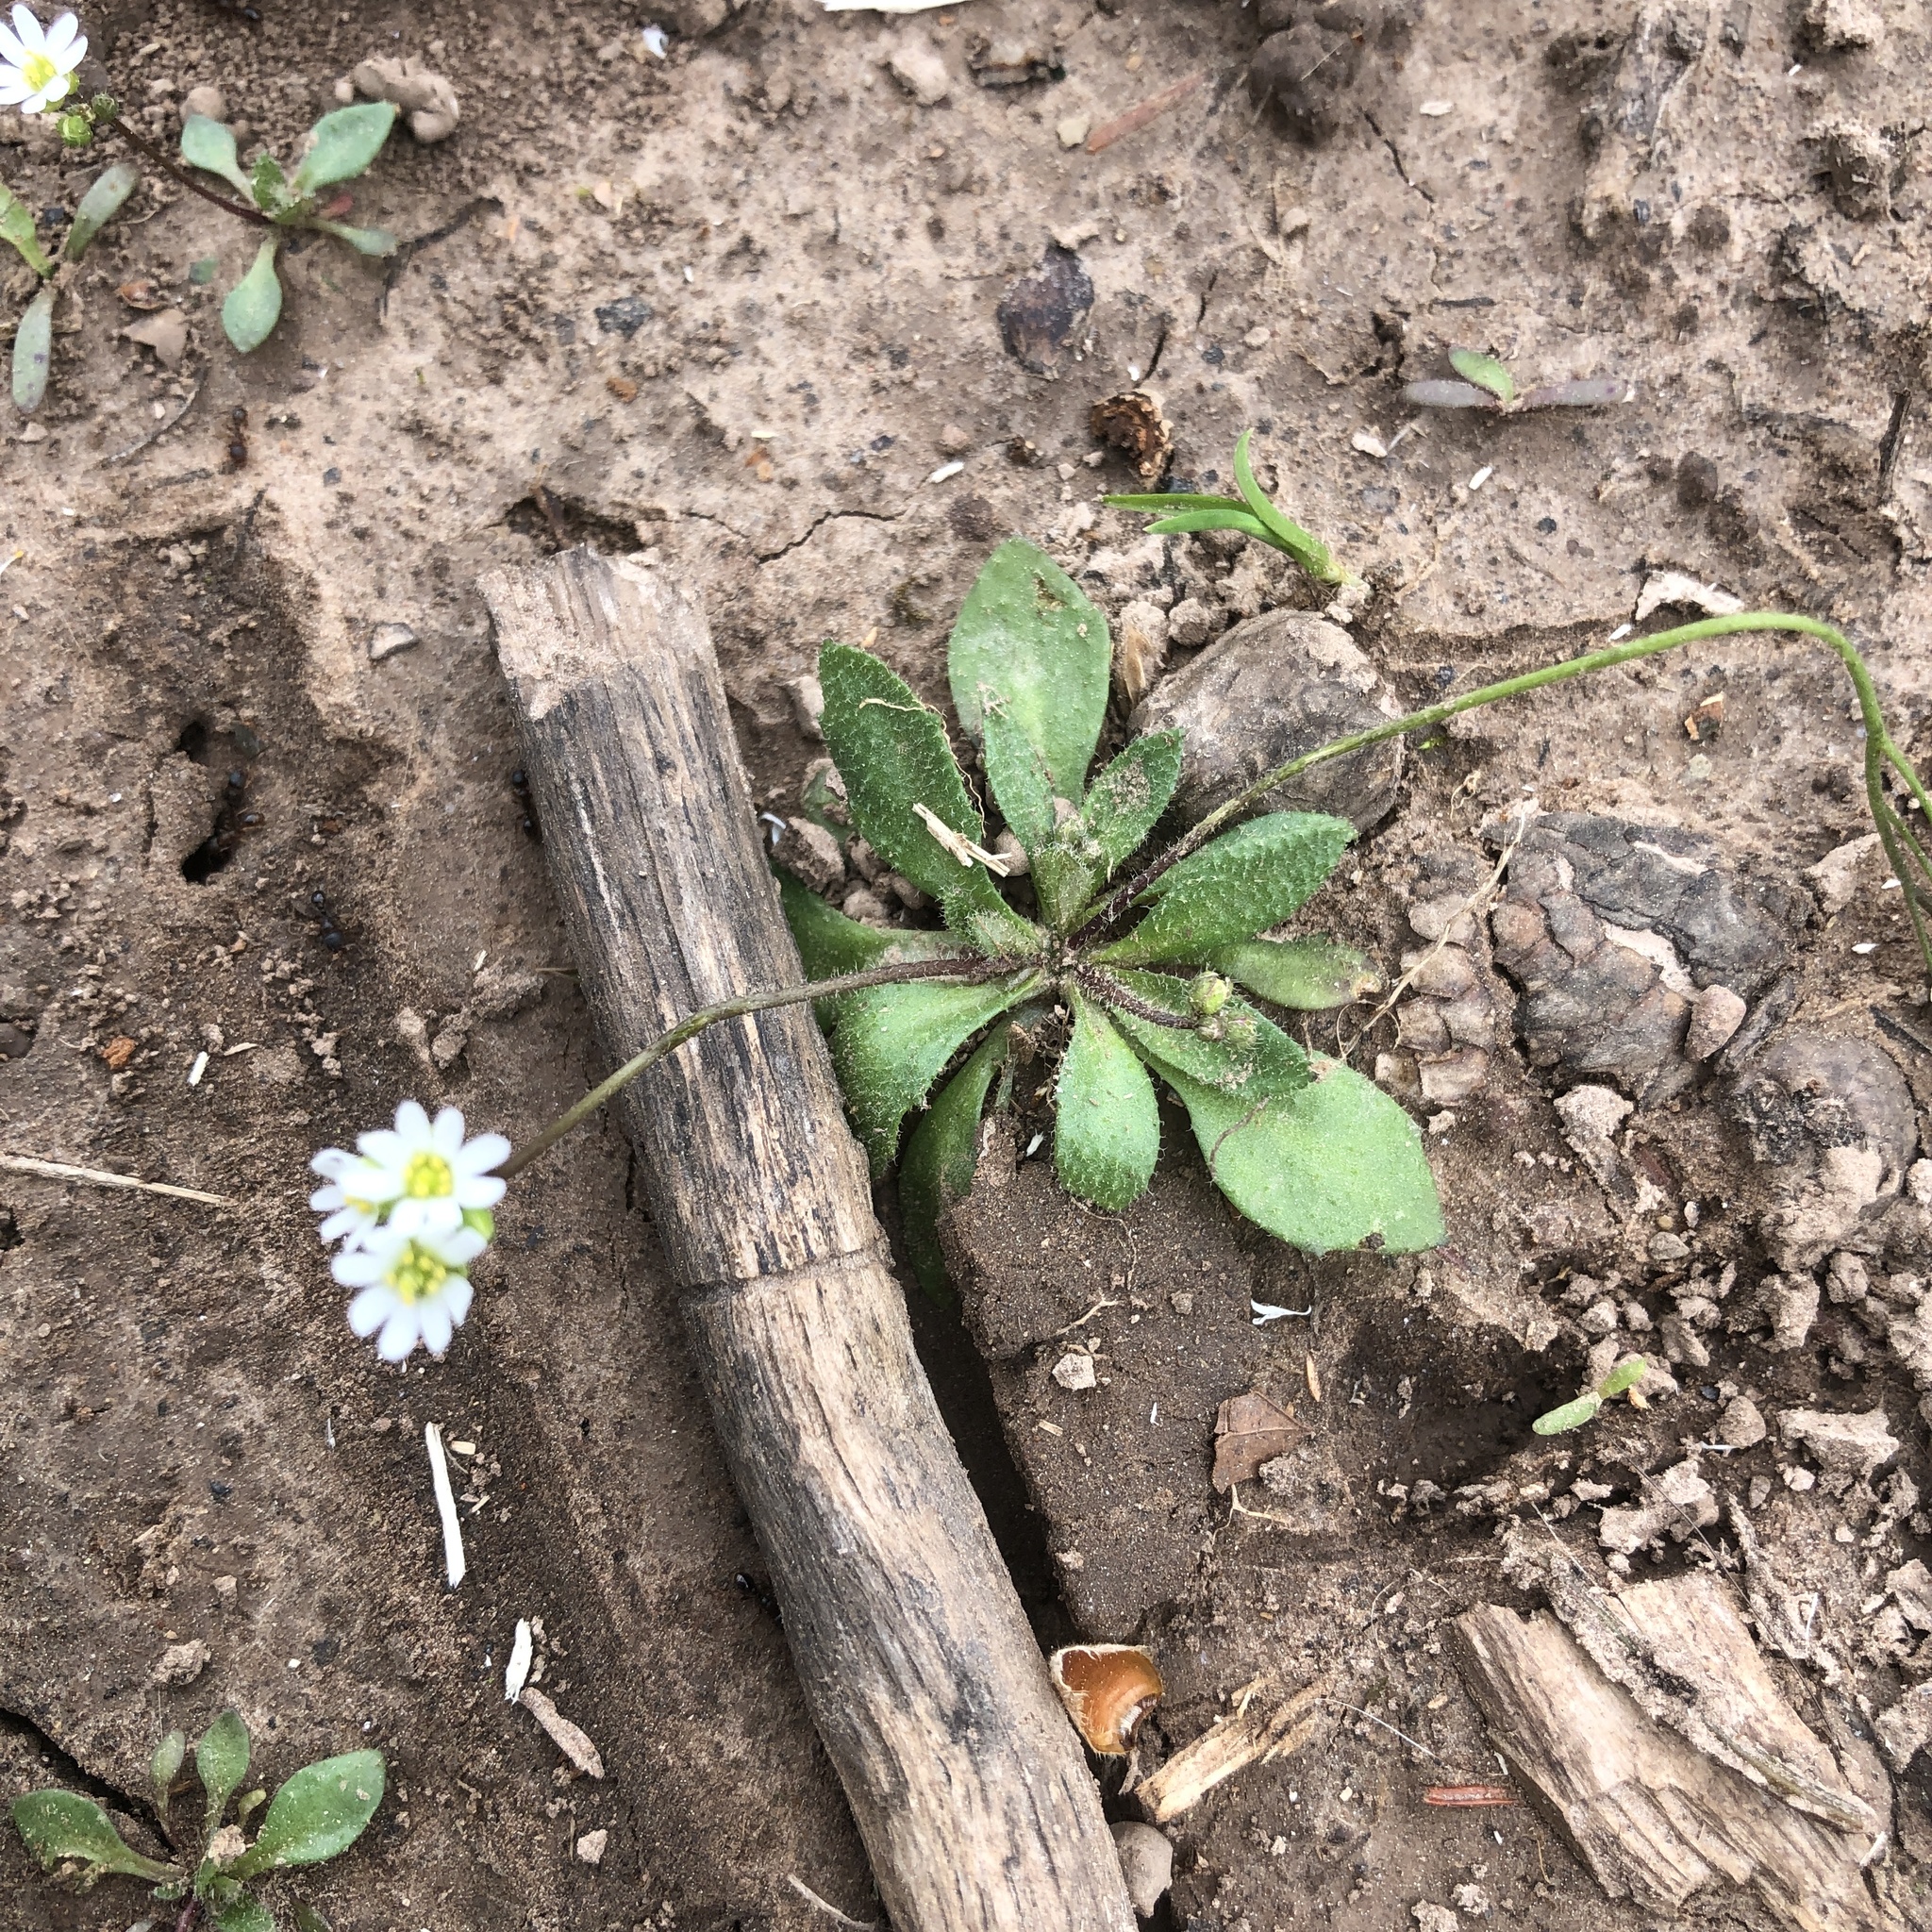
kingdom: Plantae
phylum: Tracheophyta
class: Magnoliopsida
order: Brassicales
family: Brassicaceae
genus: Draba
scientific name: Draba verna
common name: Spring draba
